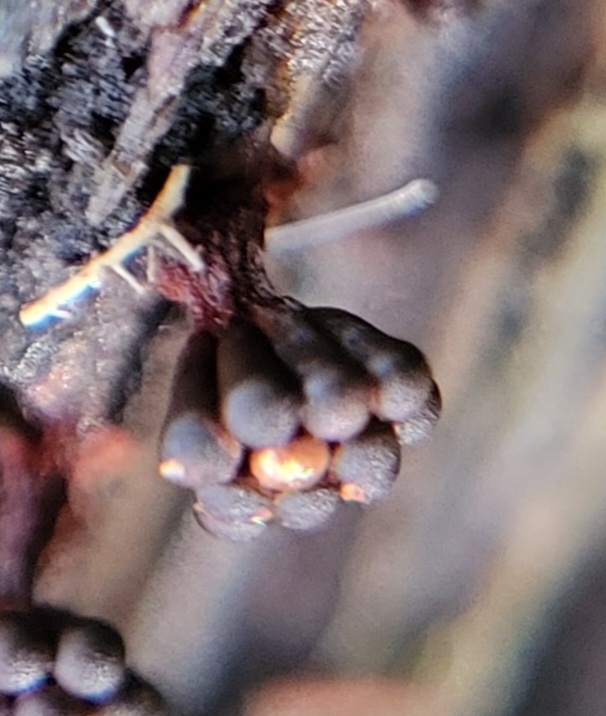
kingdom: Protozoa
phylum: Mycetozoa
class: Myxomycetes
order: Trichiales
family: Trichiaceae
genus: Metatrichia
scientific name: Metatrichia vesparia
